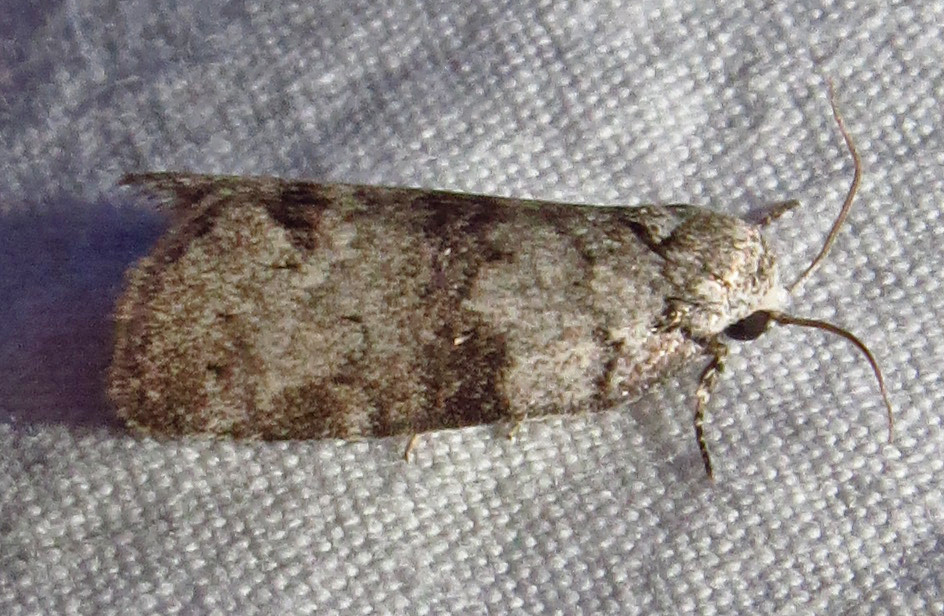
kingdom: Animalia
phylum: Arthropoda
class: Insecta
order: Lepidoptera
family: Noctuidae
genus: Polygrammate
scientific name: Polygrammate
